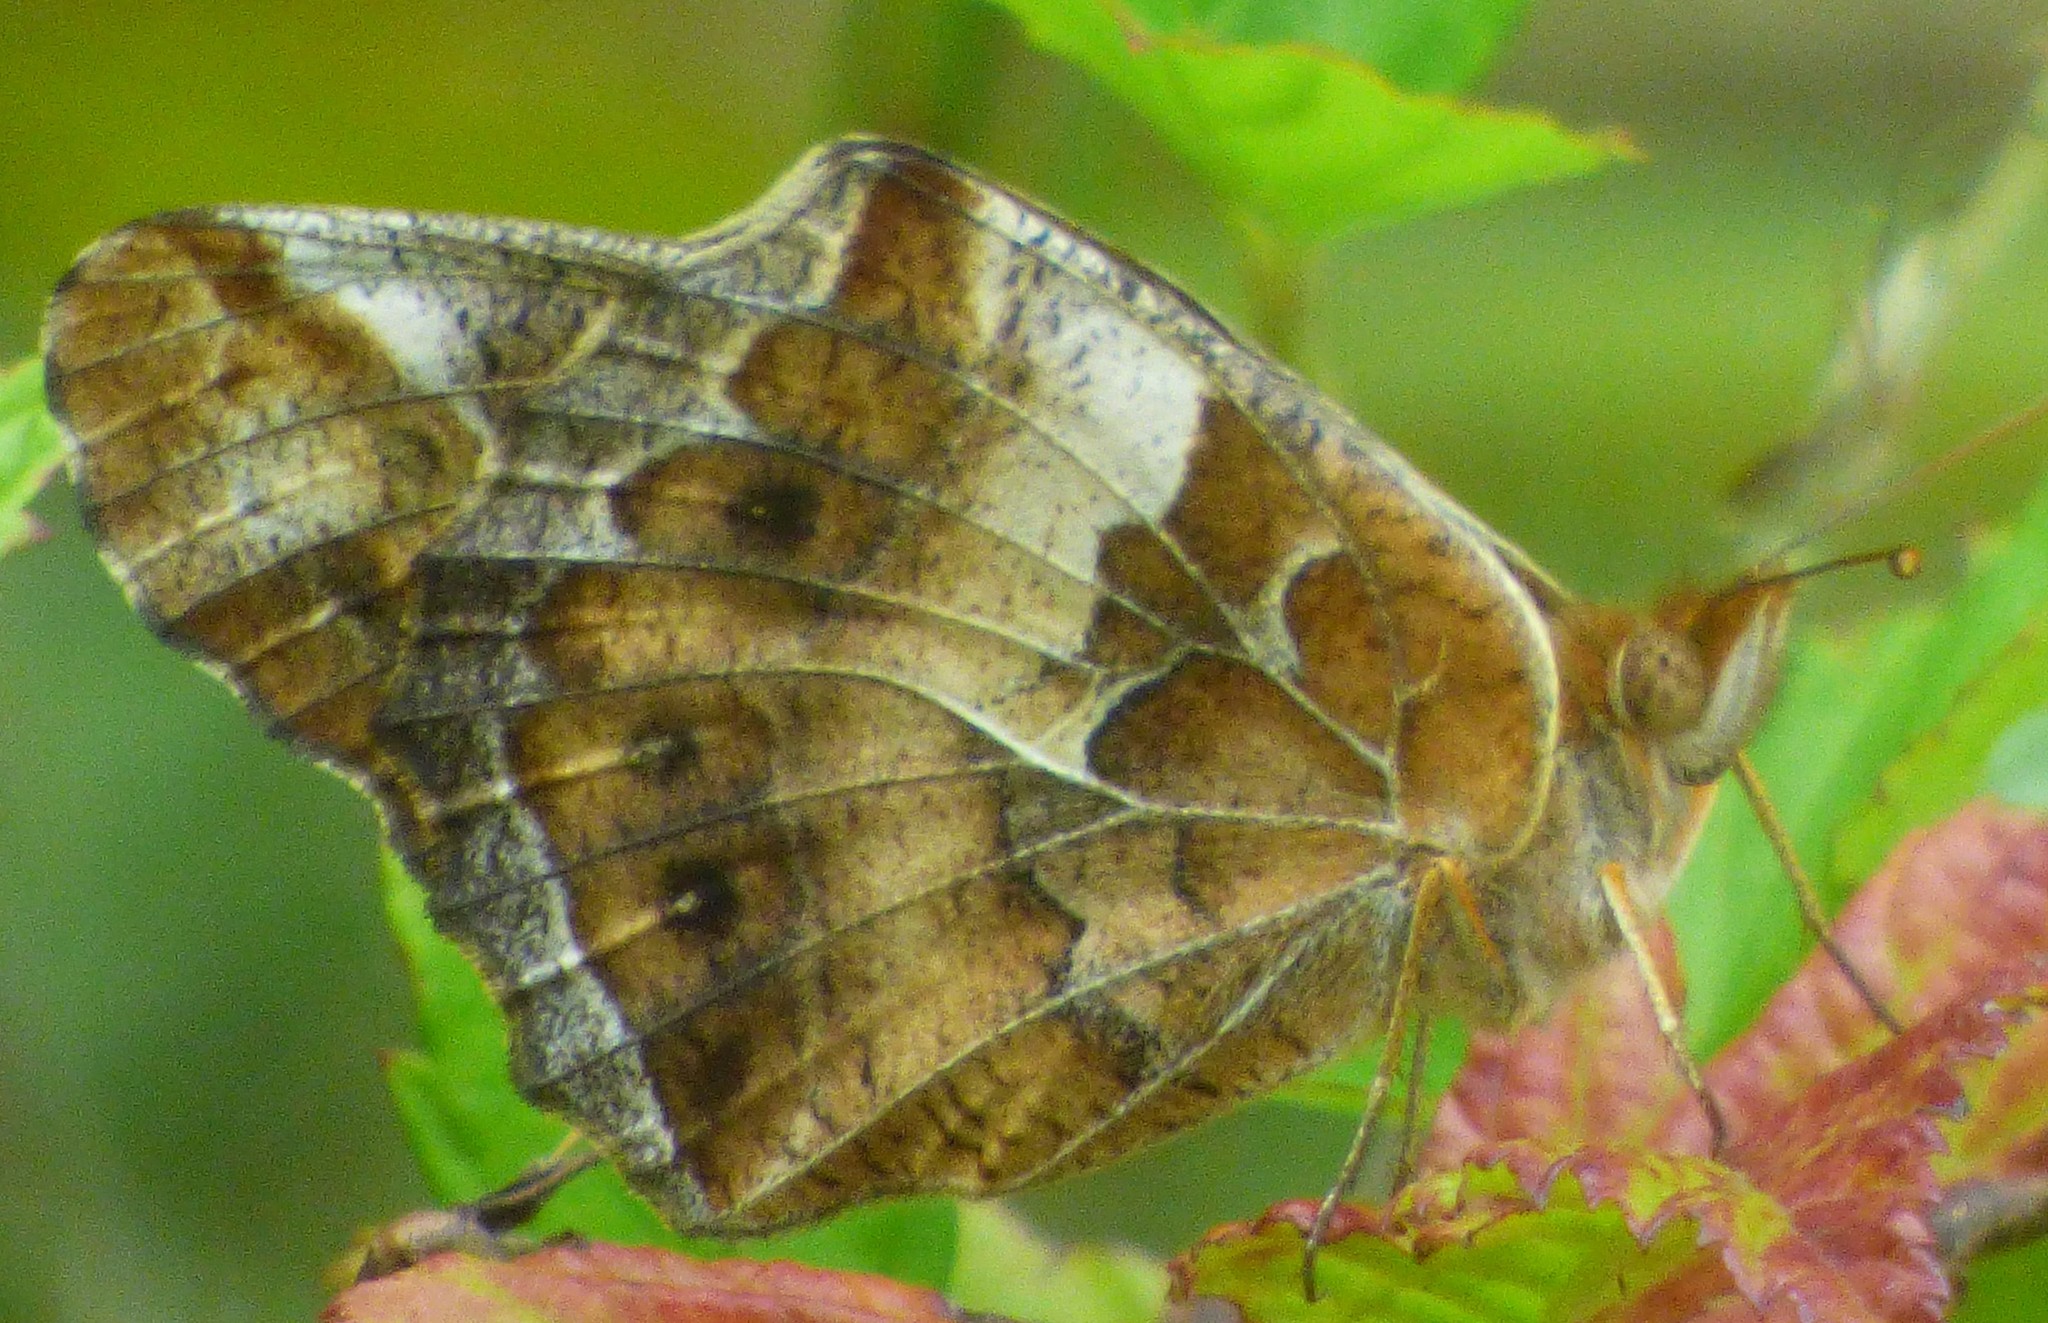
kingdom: Animalia
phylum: Arthropoda
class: Insecta
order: Lepidoptera
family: Nymphalidae
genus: Euptoieta
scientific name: Euptoieta claudia
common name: Variegated fritillary
